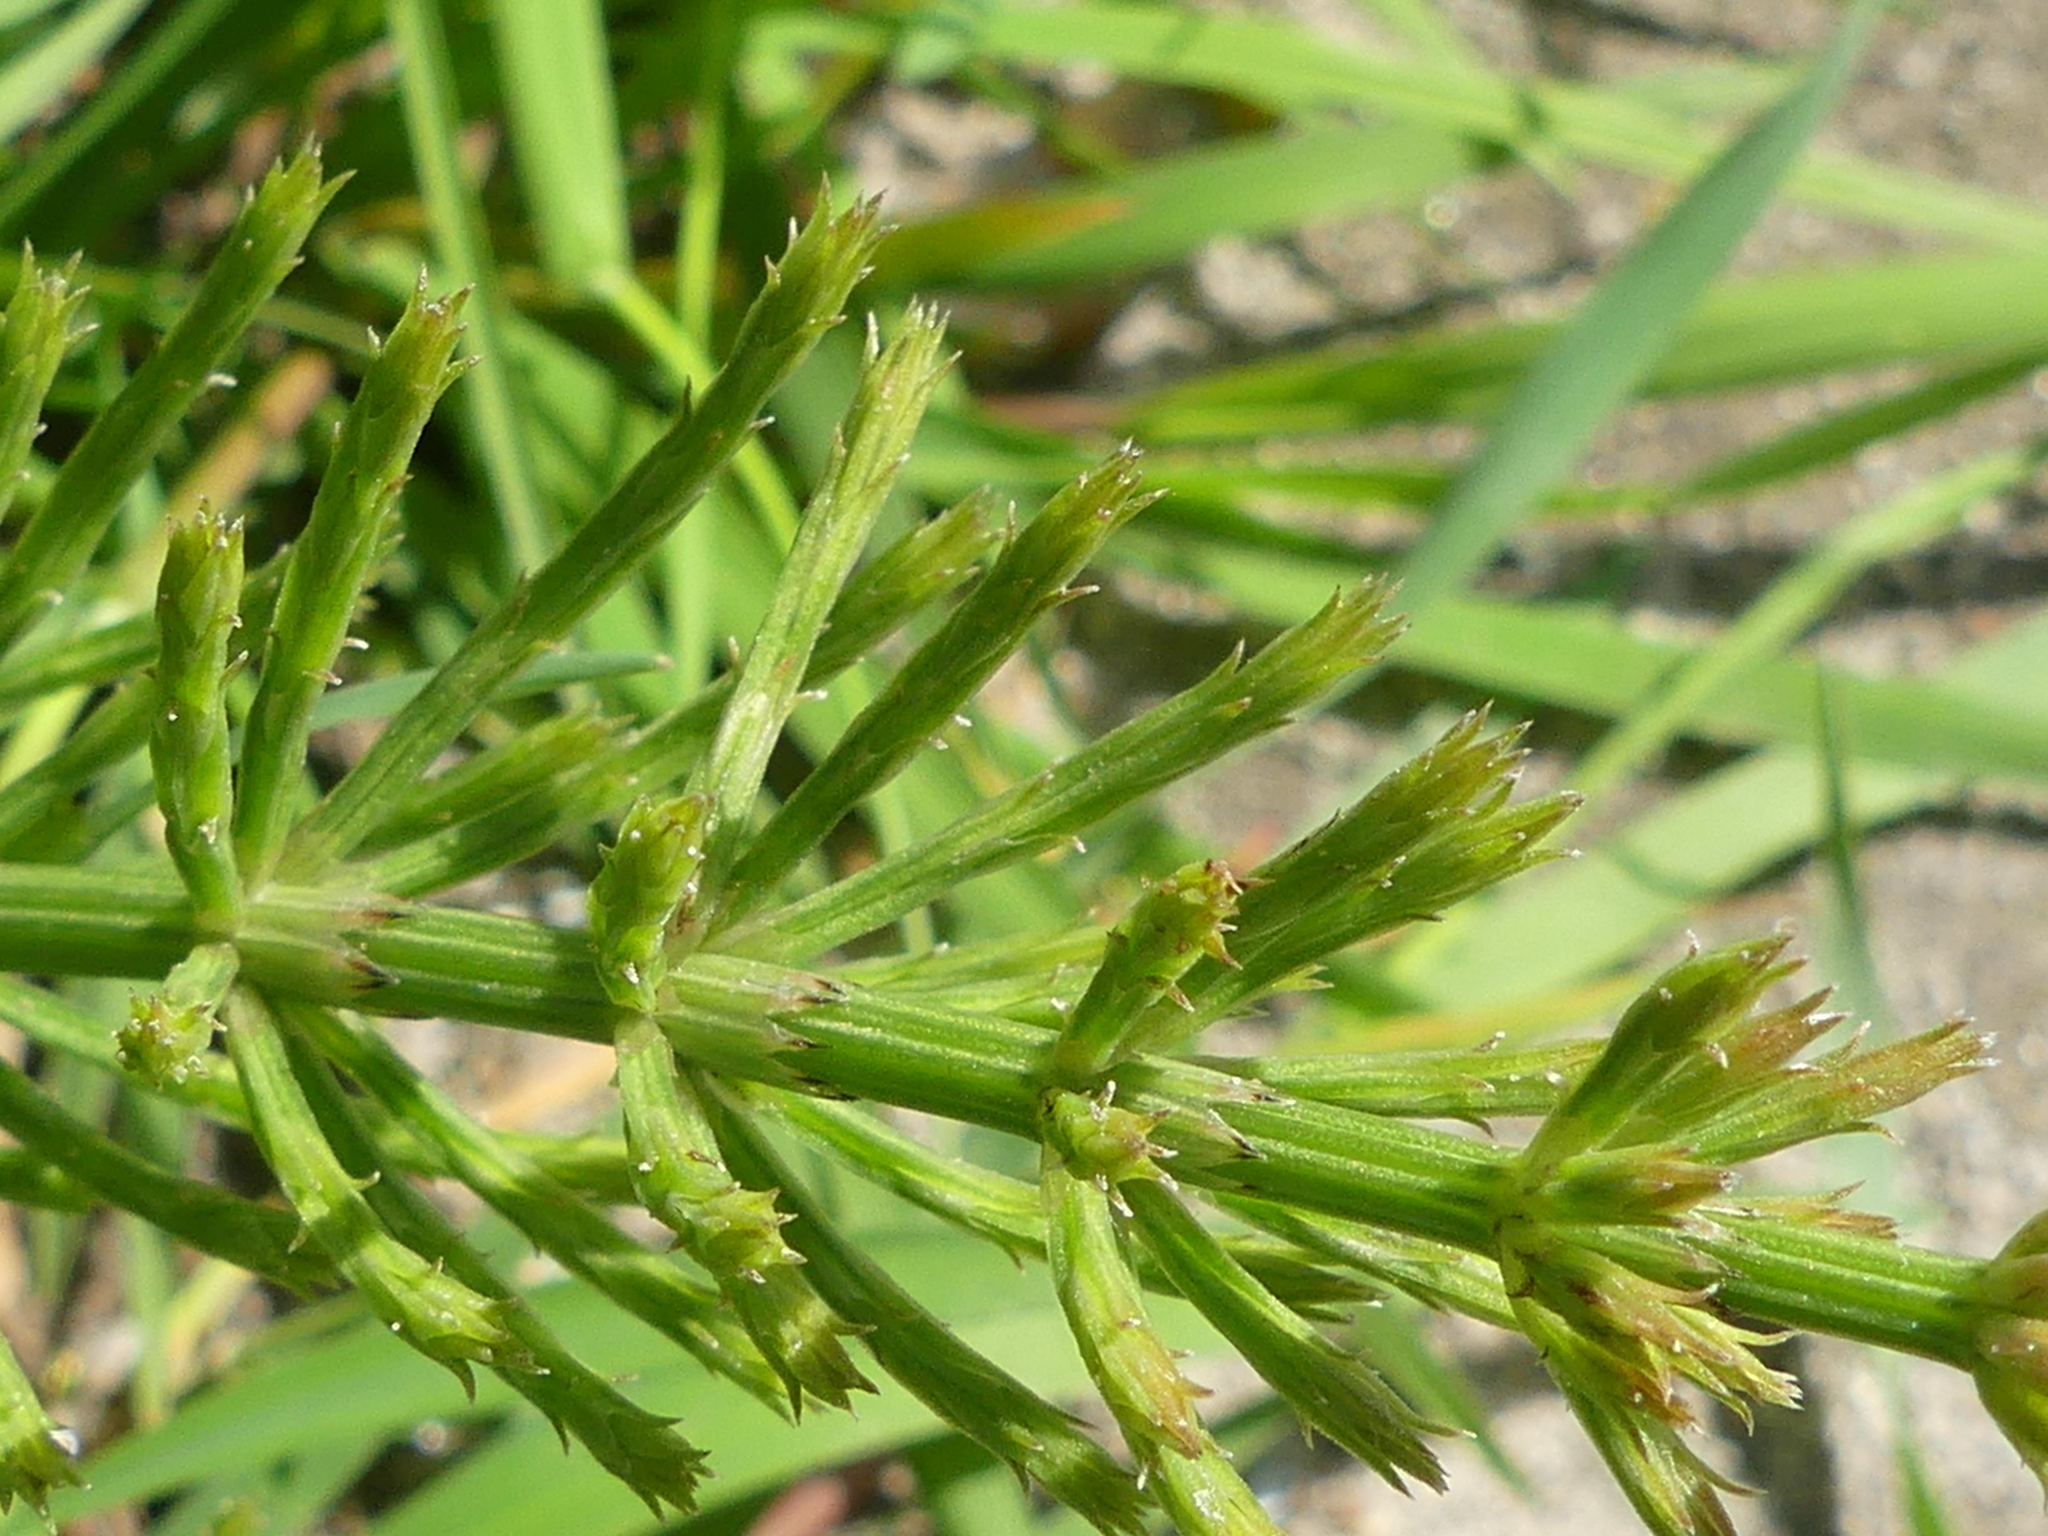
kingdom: Plantae
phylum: Tracheophyta
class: Polypodiopsida
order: Equisetales
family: Equisetaceae
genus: Equisetum
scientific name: Equisetum arvense
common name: Field horsetail
